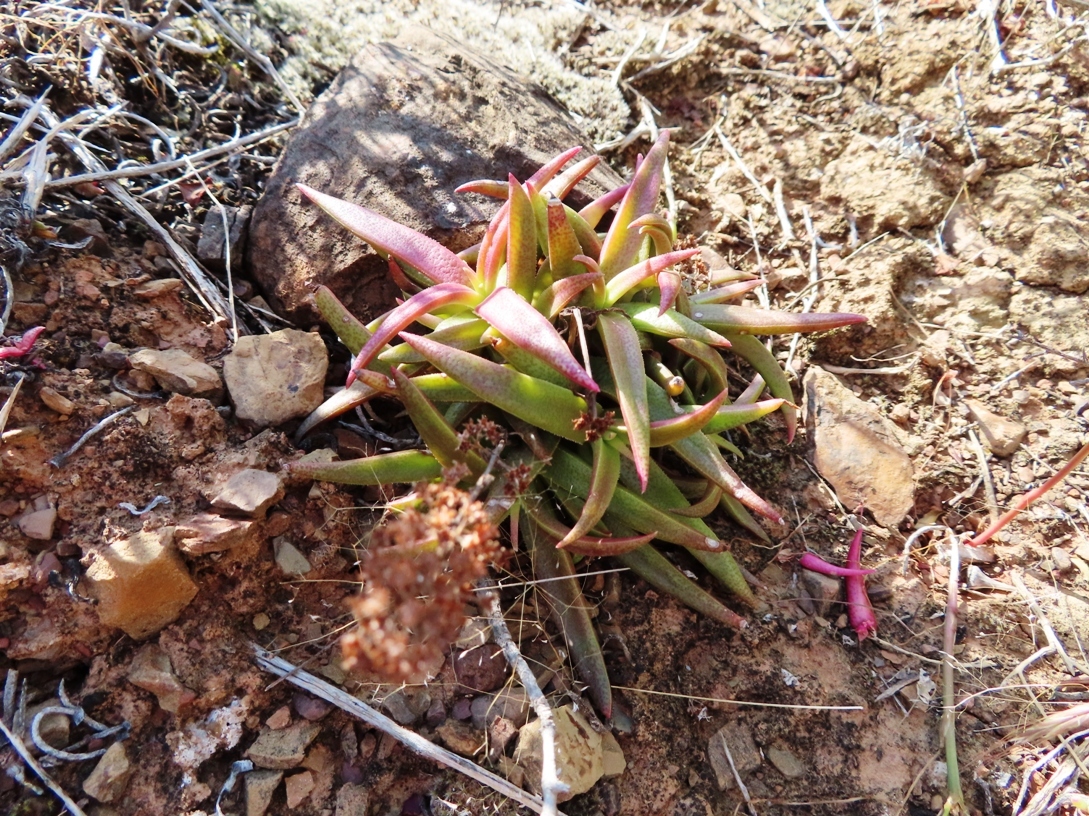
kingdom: Plantae
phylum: Tracheophyta
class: Magnoliopsida
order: Saxifragales
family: Crassulaceae
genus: Crassula
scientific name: Crassula capitella
